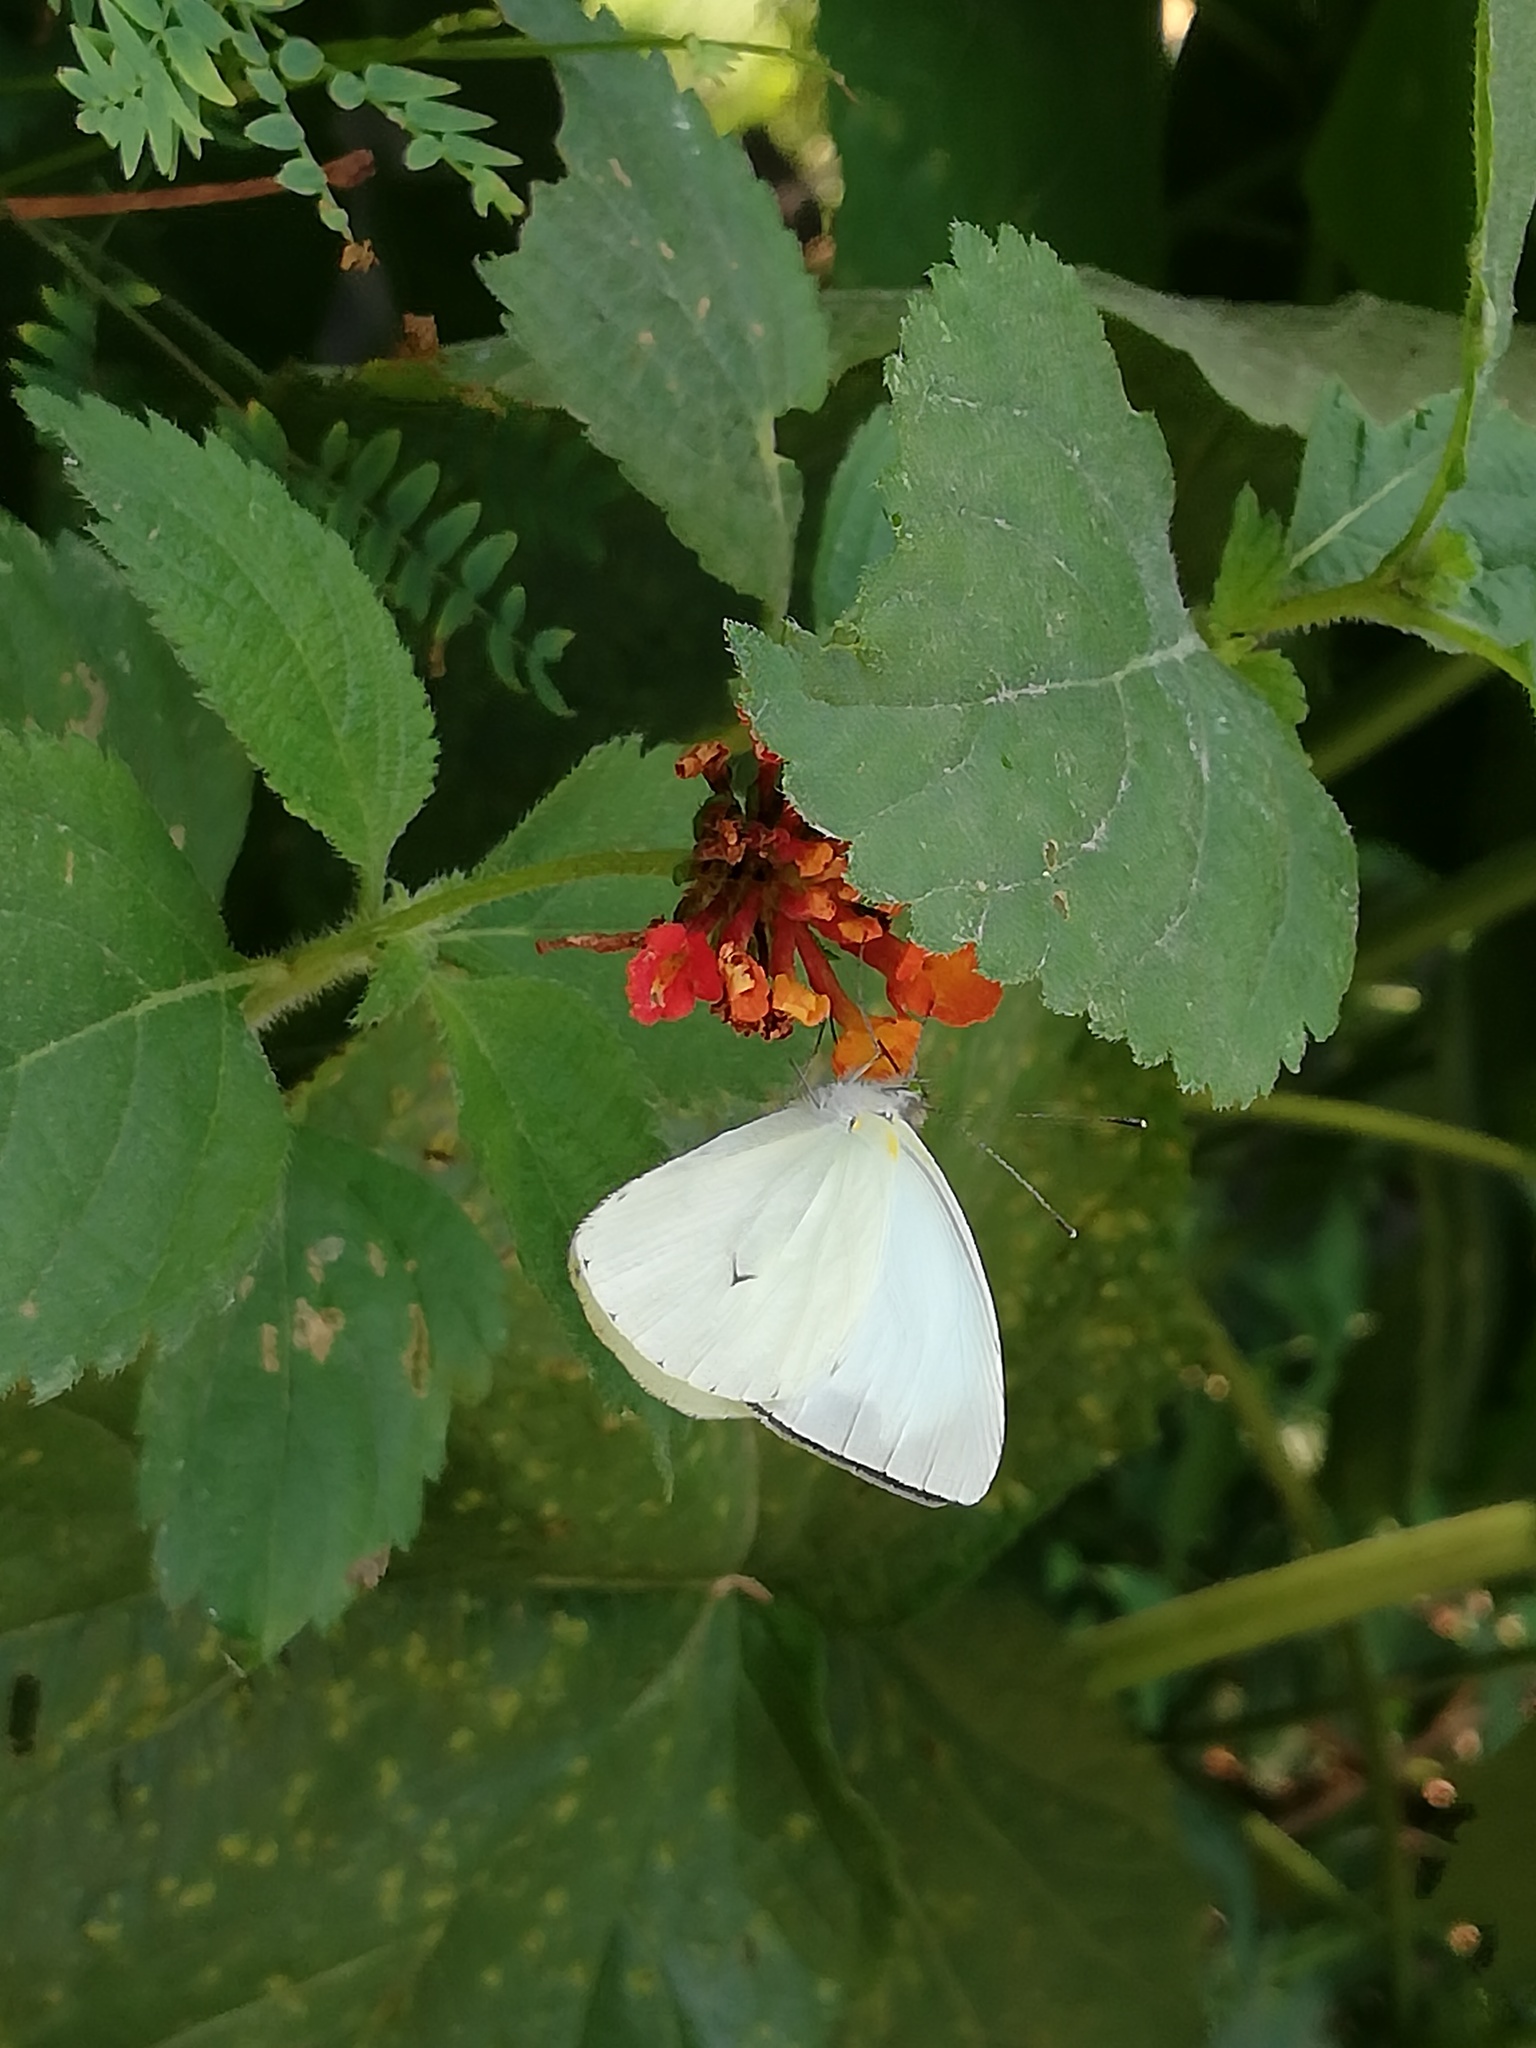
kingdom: Animalia
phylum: Arthropoda
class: Insecta
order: Lepidoptera
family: Pieridae
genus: Leptophobia
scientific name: Leptophobia aripa
